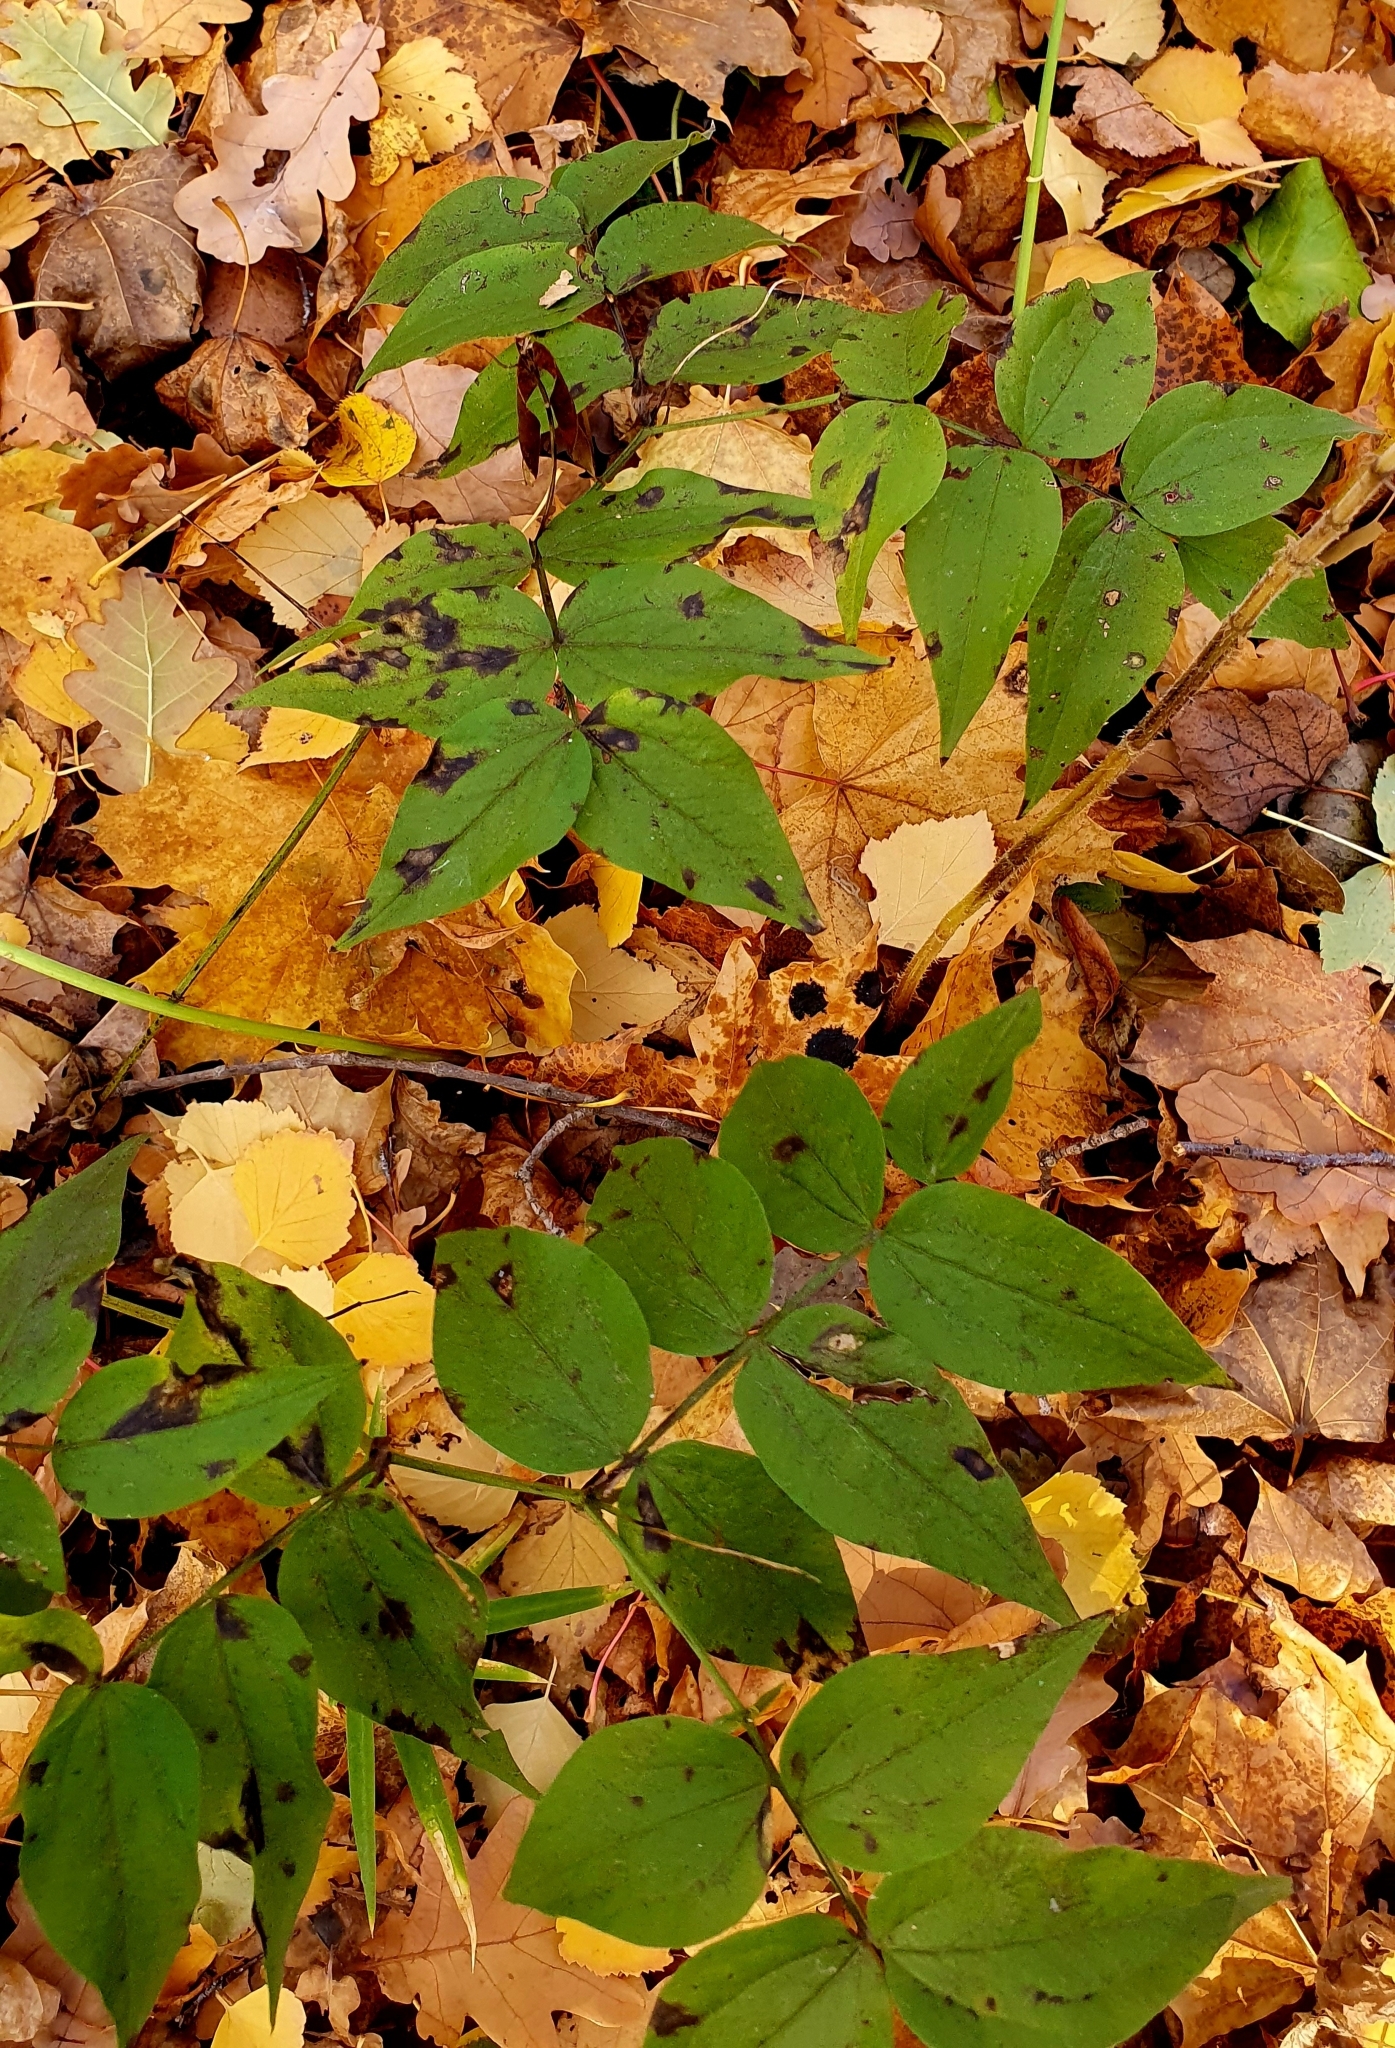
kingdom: Plantae
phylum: Tracheophyta
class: Magnoliopsida
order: Fabales
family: Fabaceae
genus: Lathyrus
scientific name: Lathyrus vernus
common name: Spring pea
